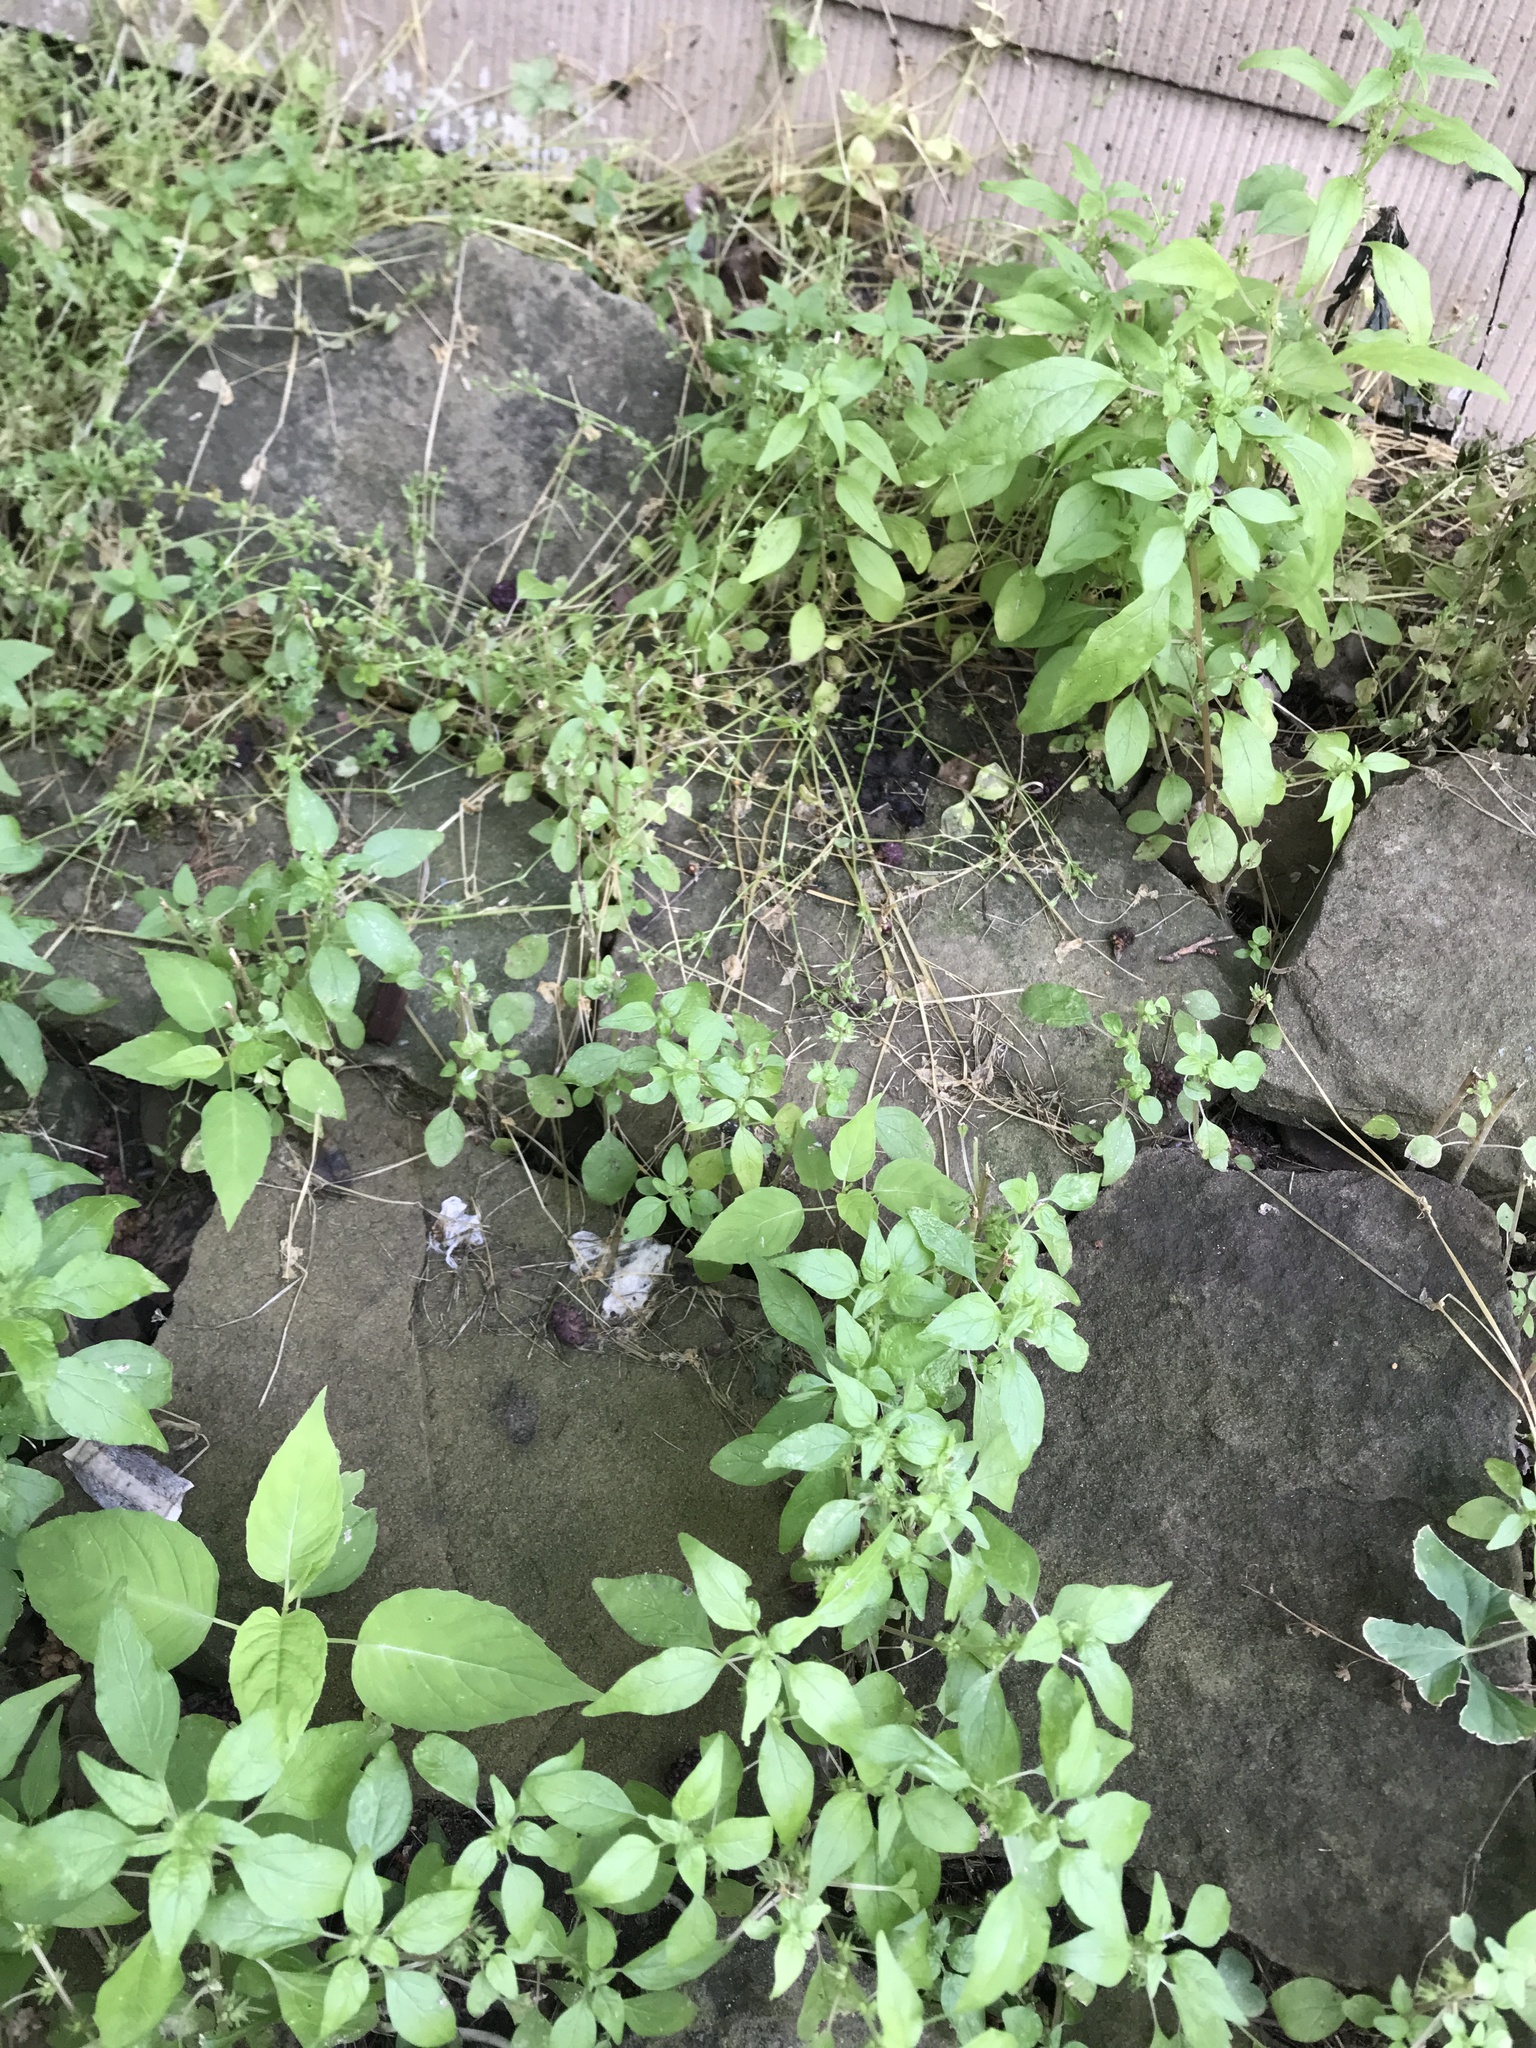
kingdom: Plantae
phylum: Tracheophyta
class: Magnoliopsida
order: Rosales
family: Urticaceae
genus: Parietaria
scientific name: Parietaria pensylvanica
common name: Pennsylvania pellitory
